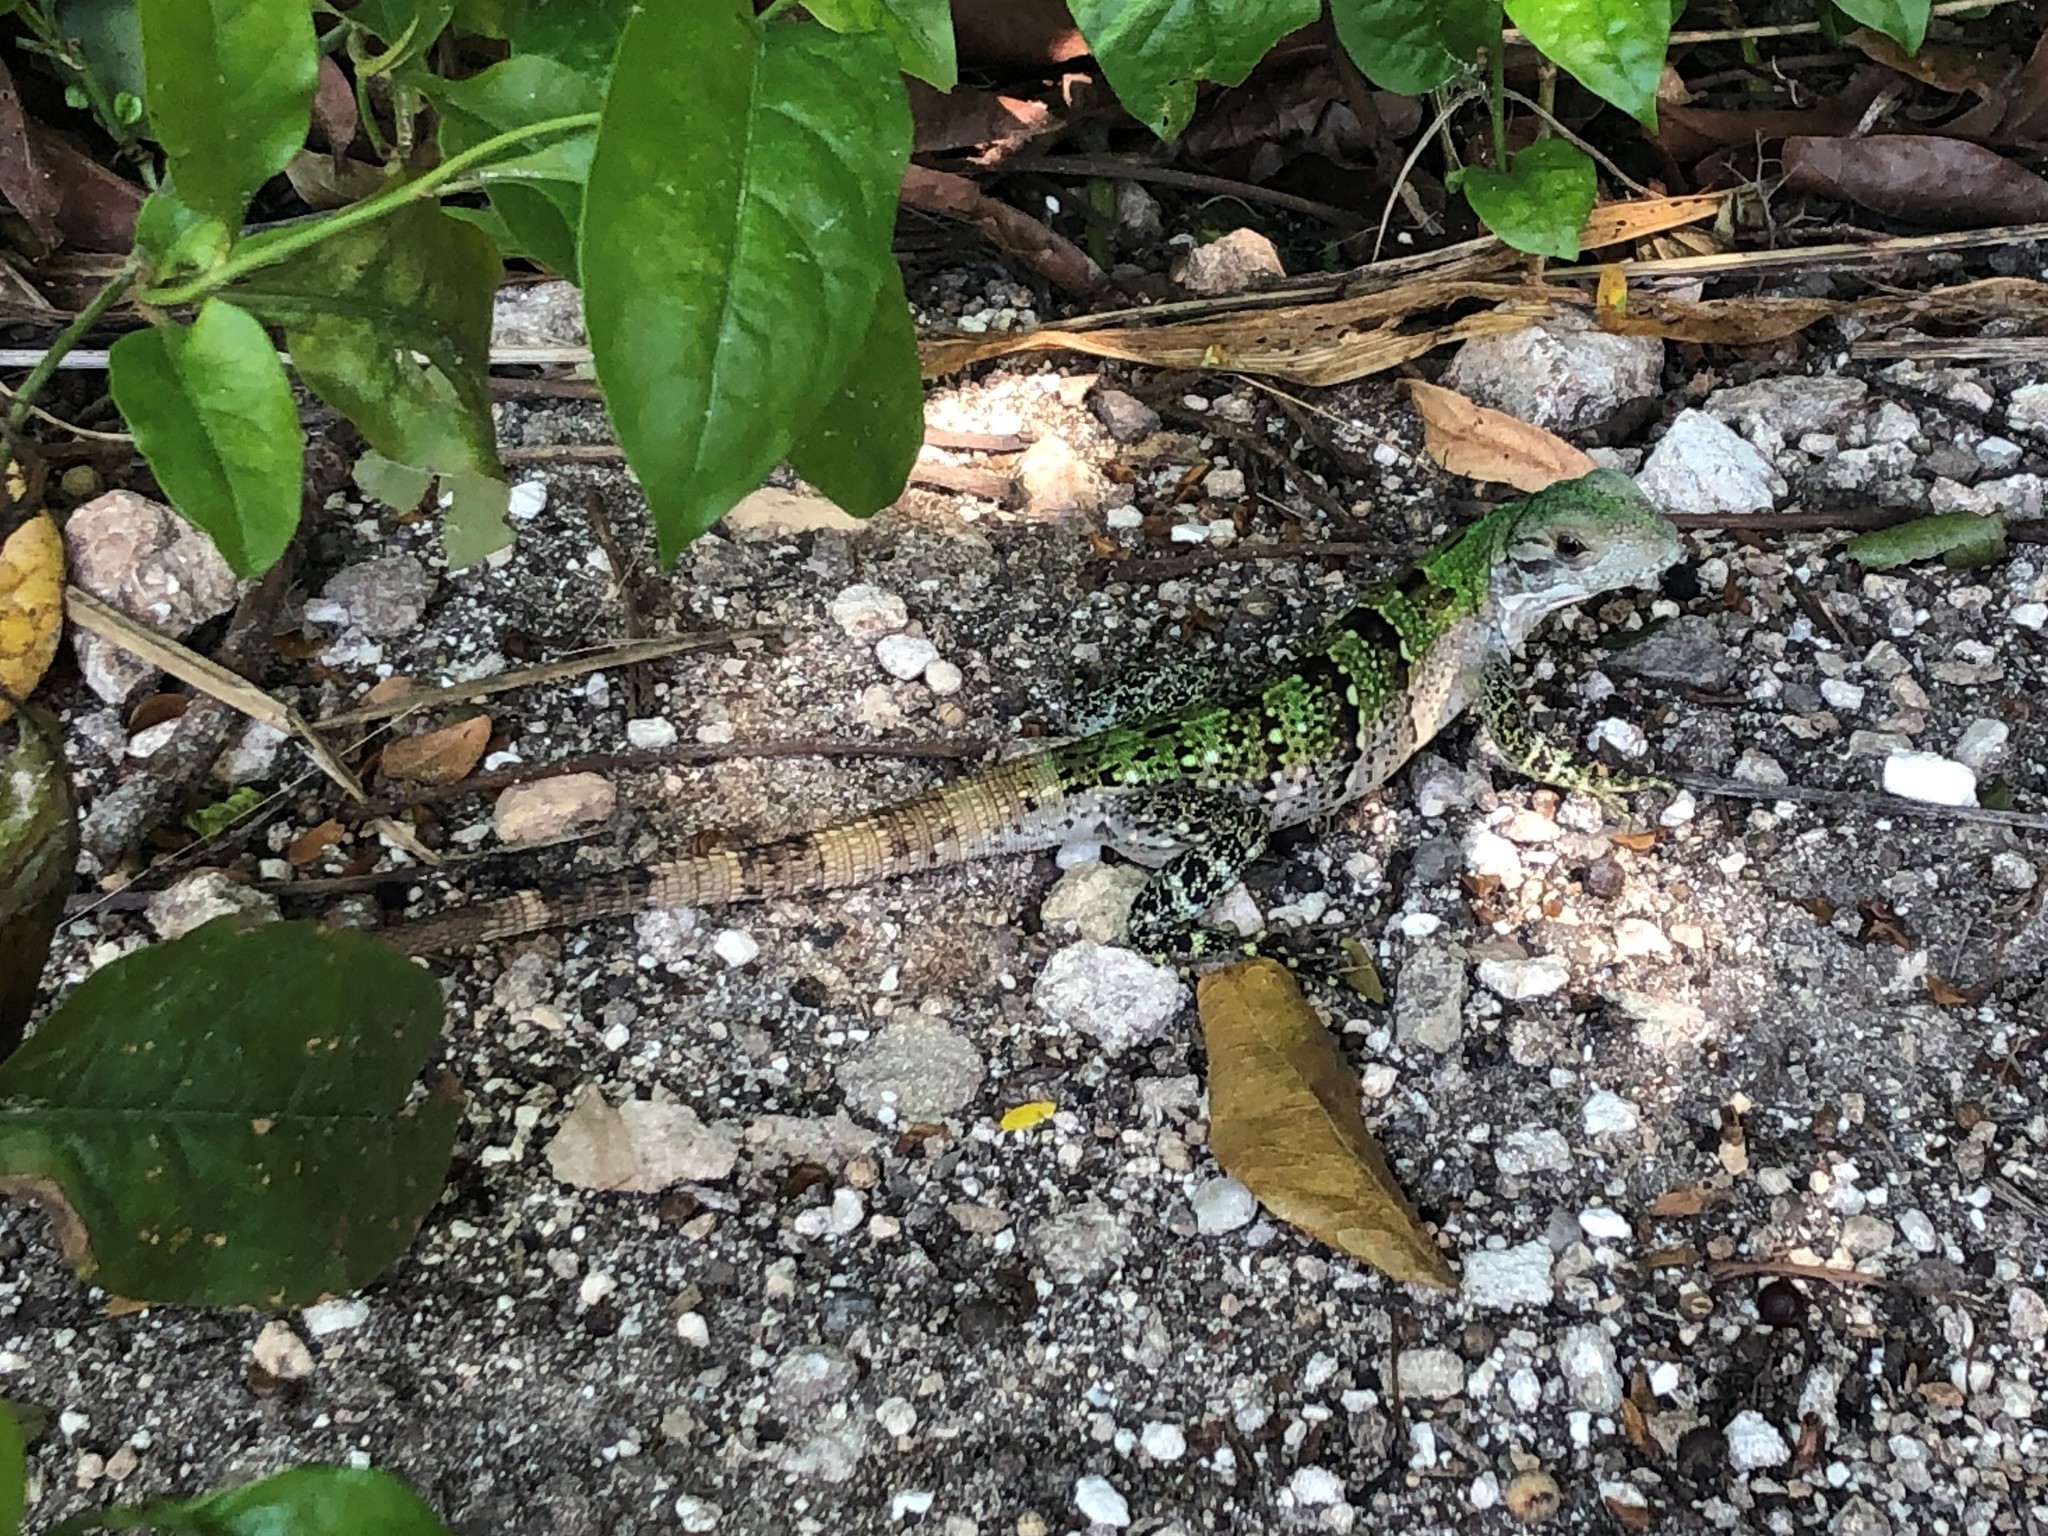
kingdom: Animalia
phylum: Chordata
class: Squamata
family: Iguanidae
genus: Ctenosaura
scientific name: Ctenosaura similis
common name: Black spiny-tailed iguana
